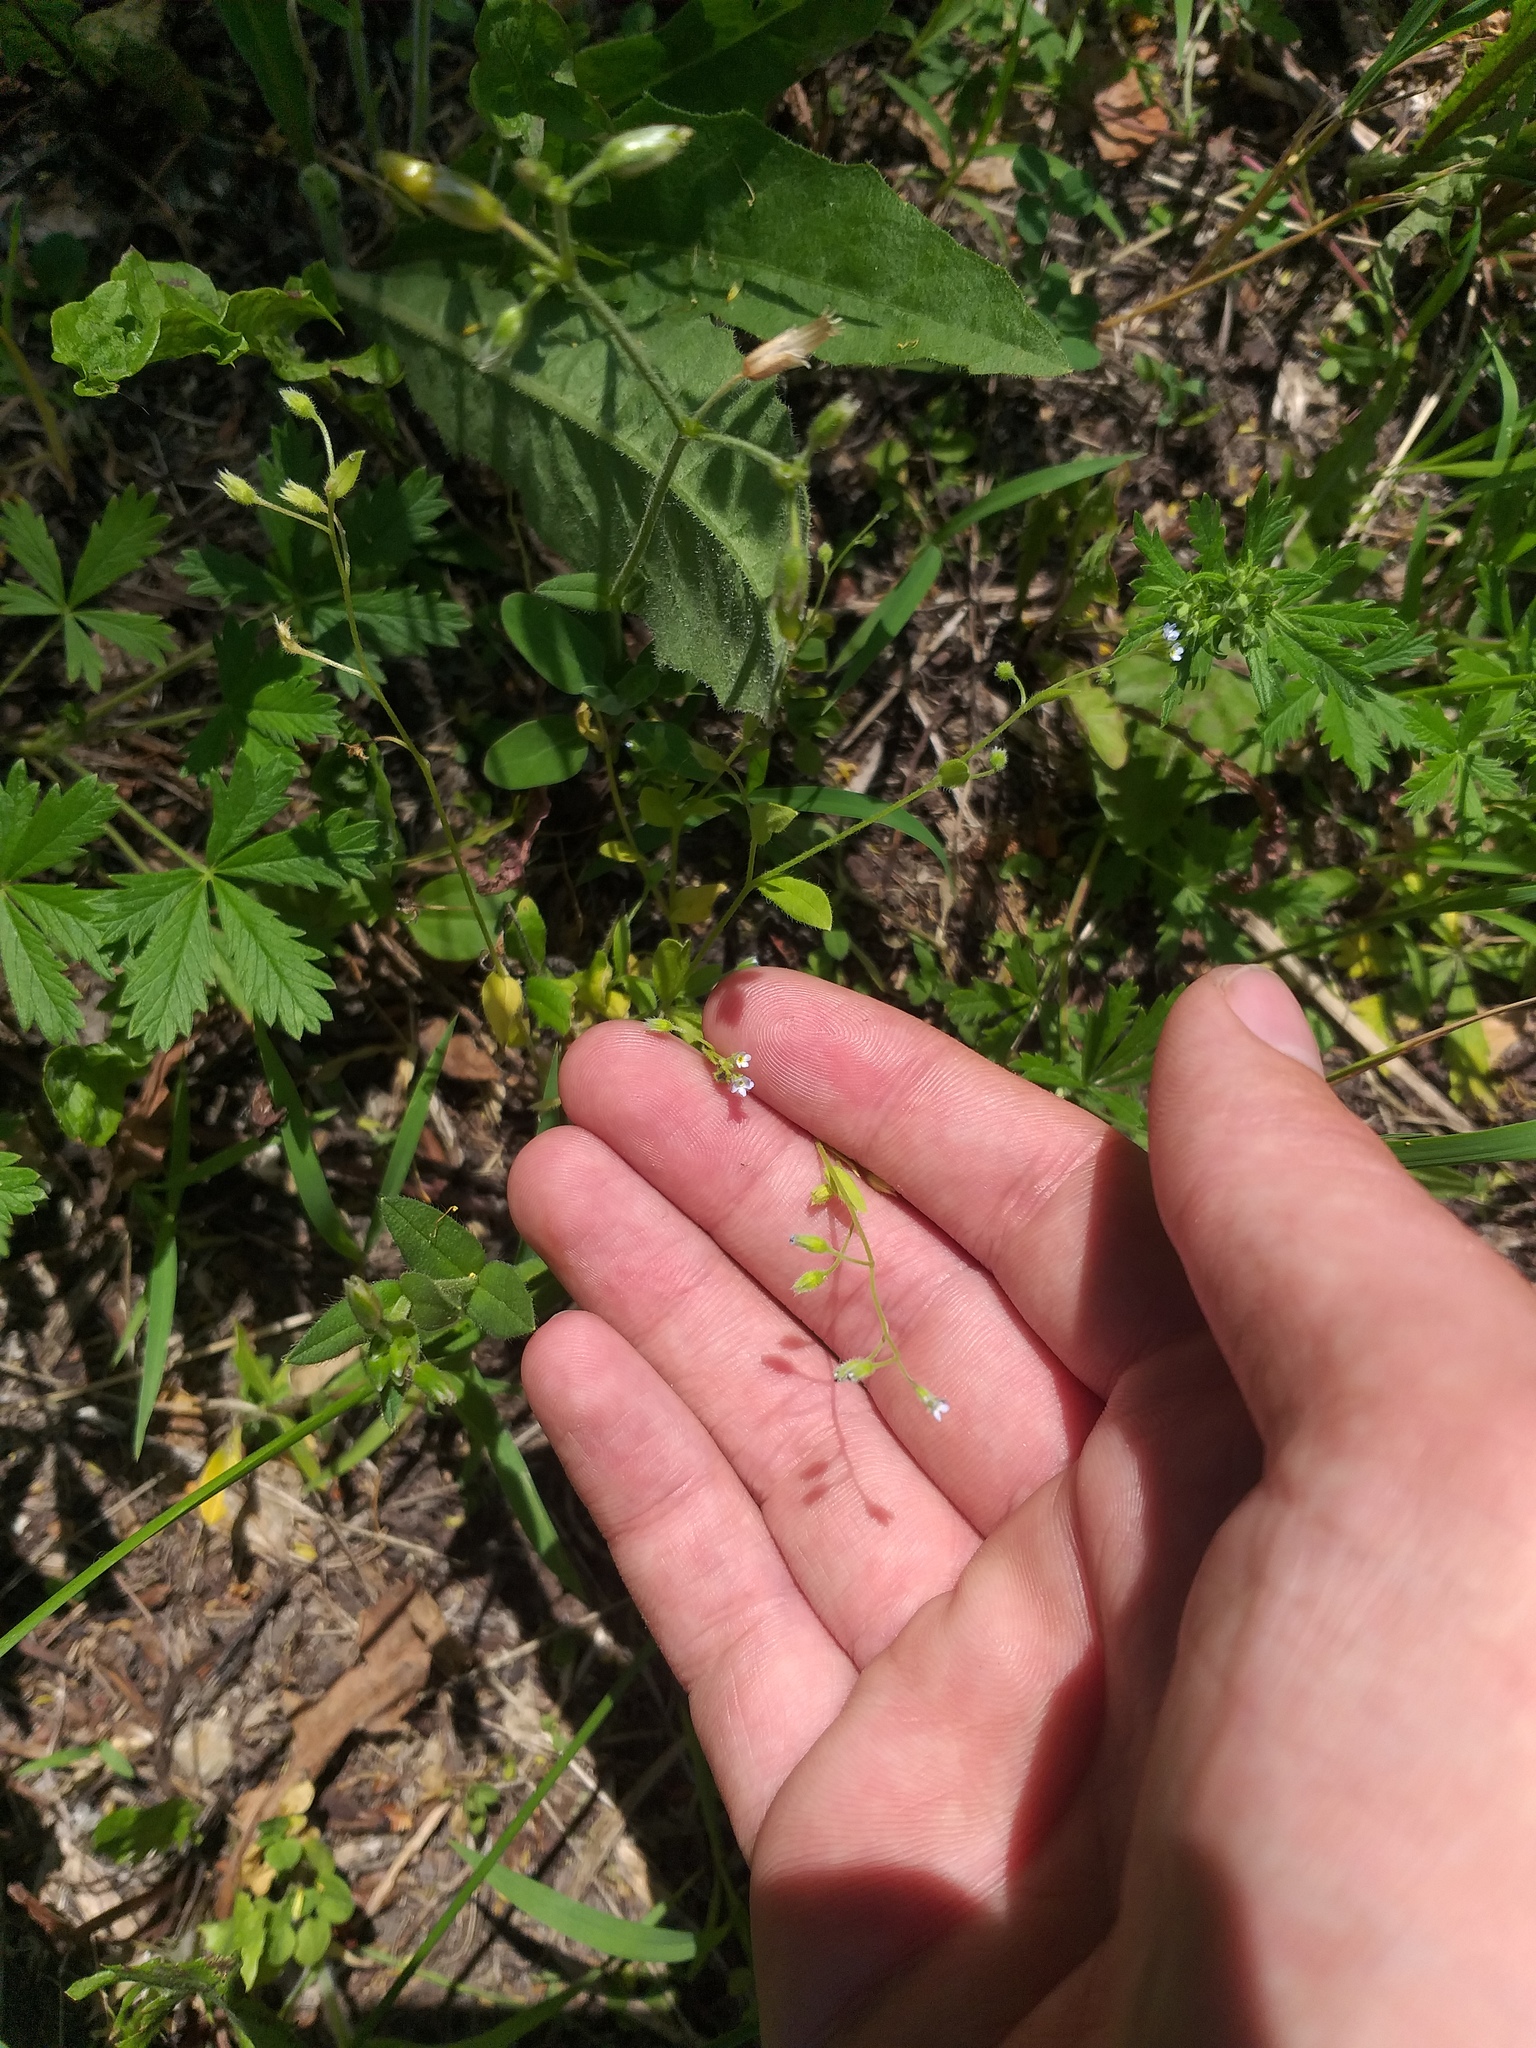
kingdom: Plantae
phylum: Tracheophyta
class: Magnoliopsida
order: Boraginales
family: Boraginaceae
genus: Myosotis
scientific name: Myosotis sparsiflora
